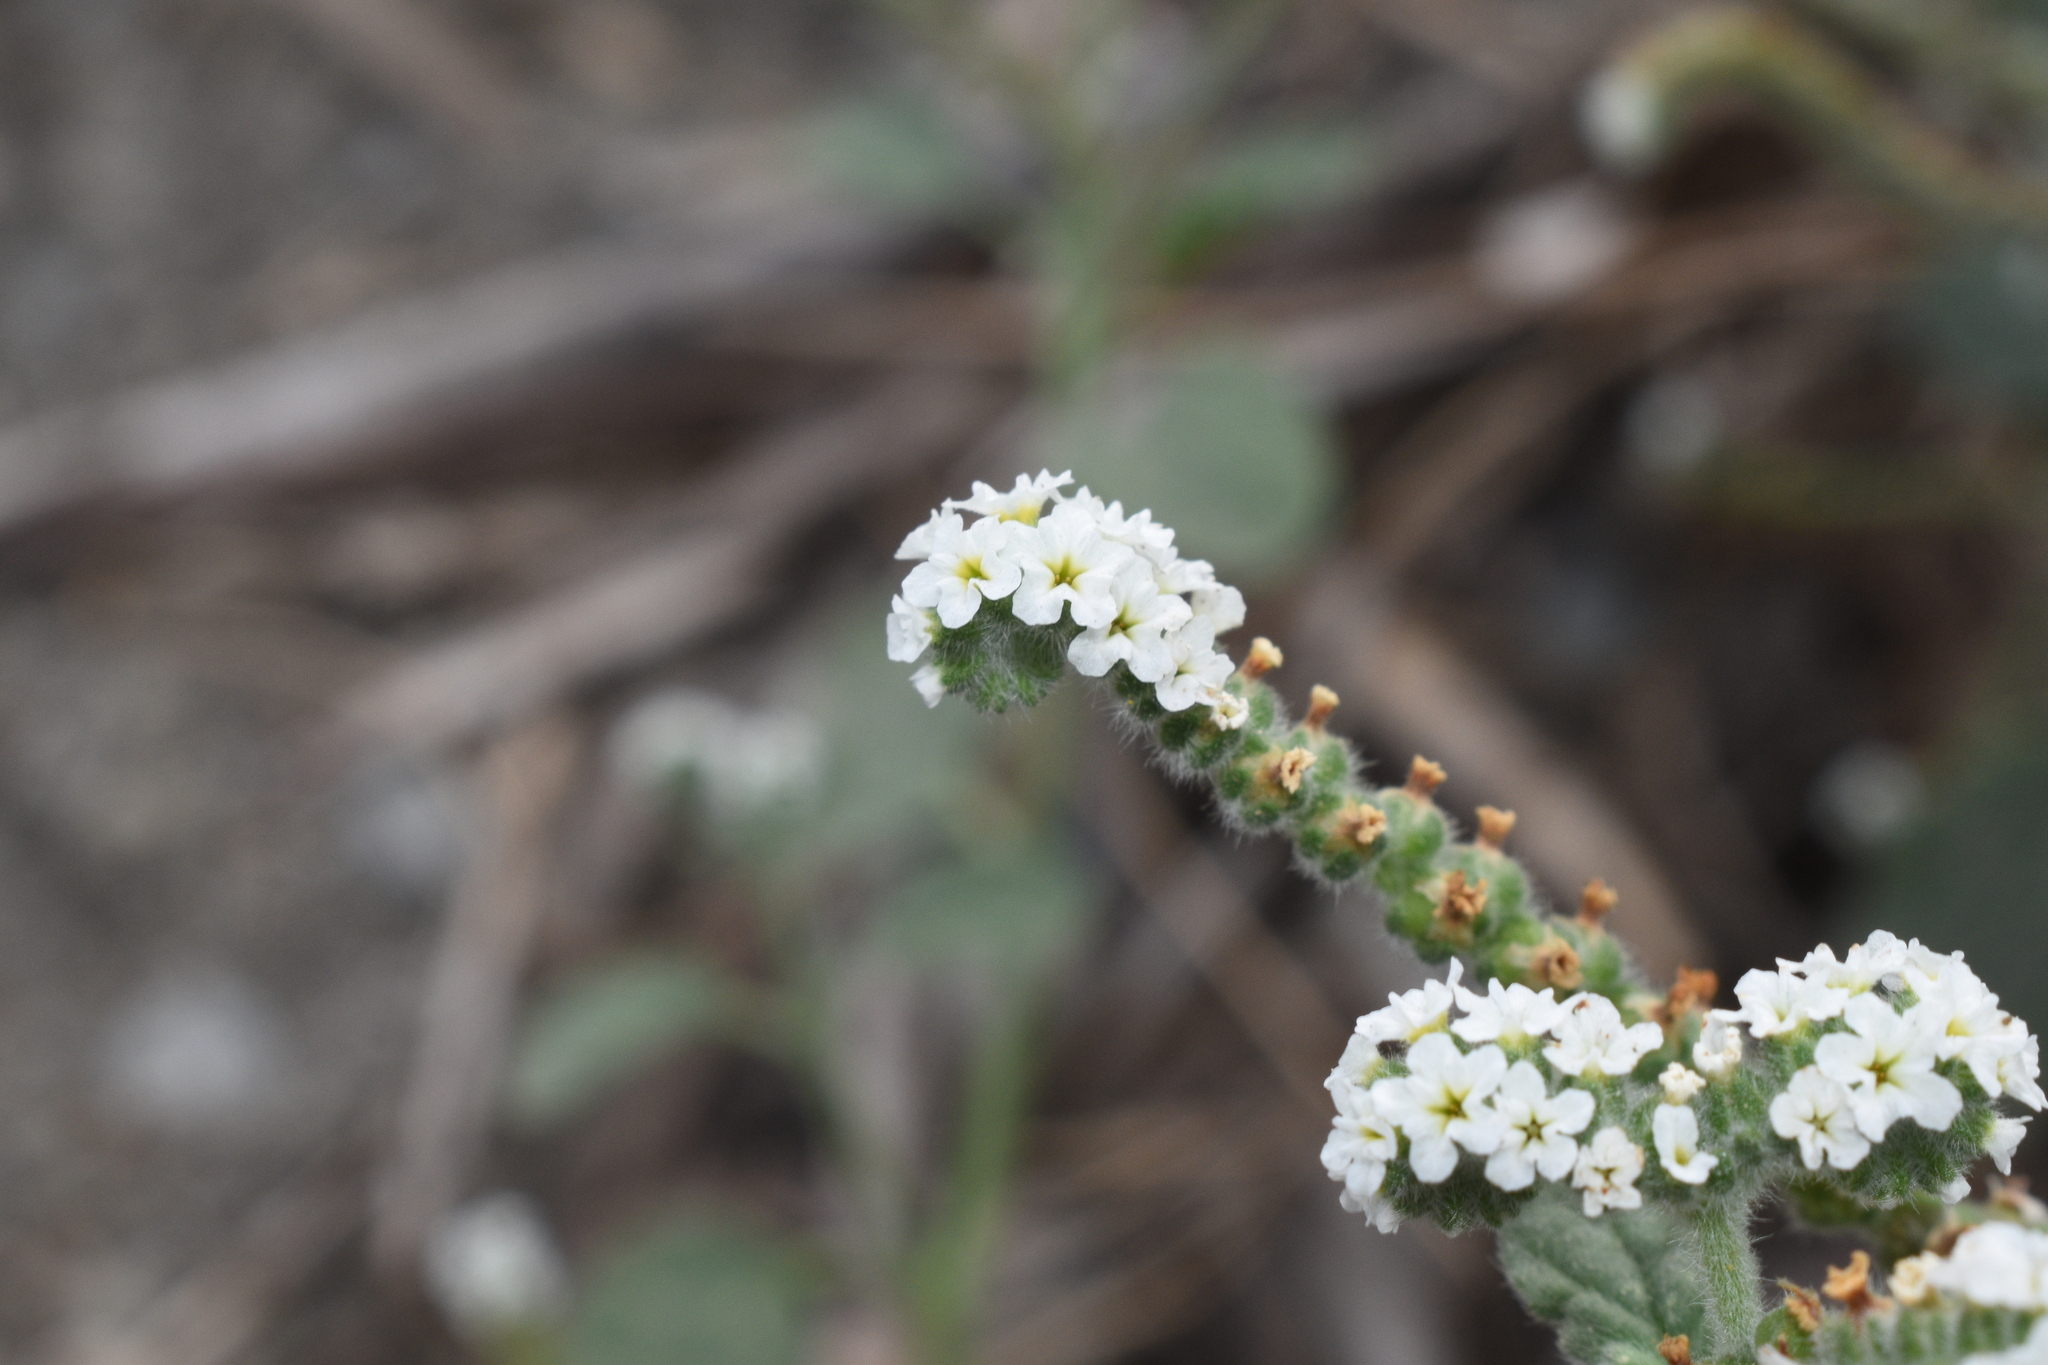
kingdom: Plantae
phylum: Tracheophyta
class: Magnoliopsida
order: Boraginales
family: Heliotropiaceae
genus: Heliotropium
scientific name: Heliotropium europaeum
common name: European heliotrope
